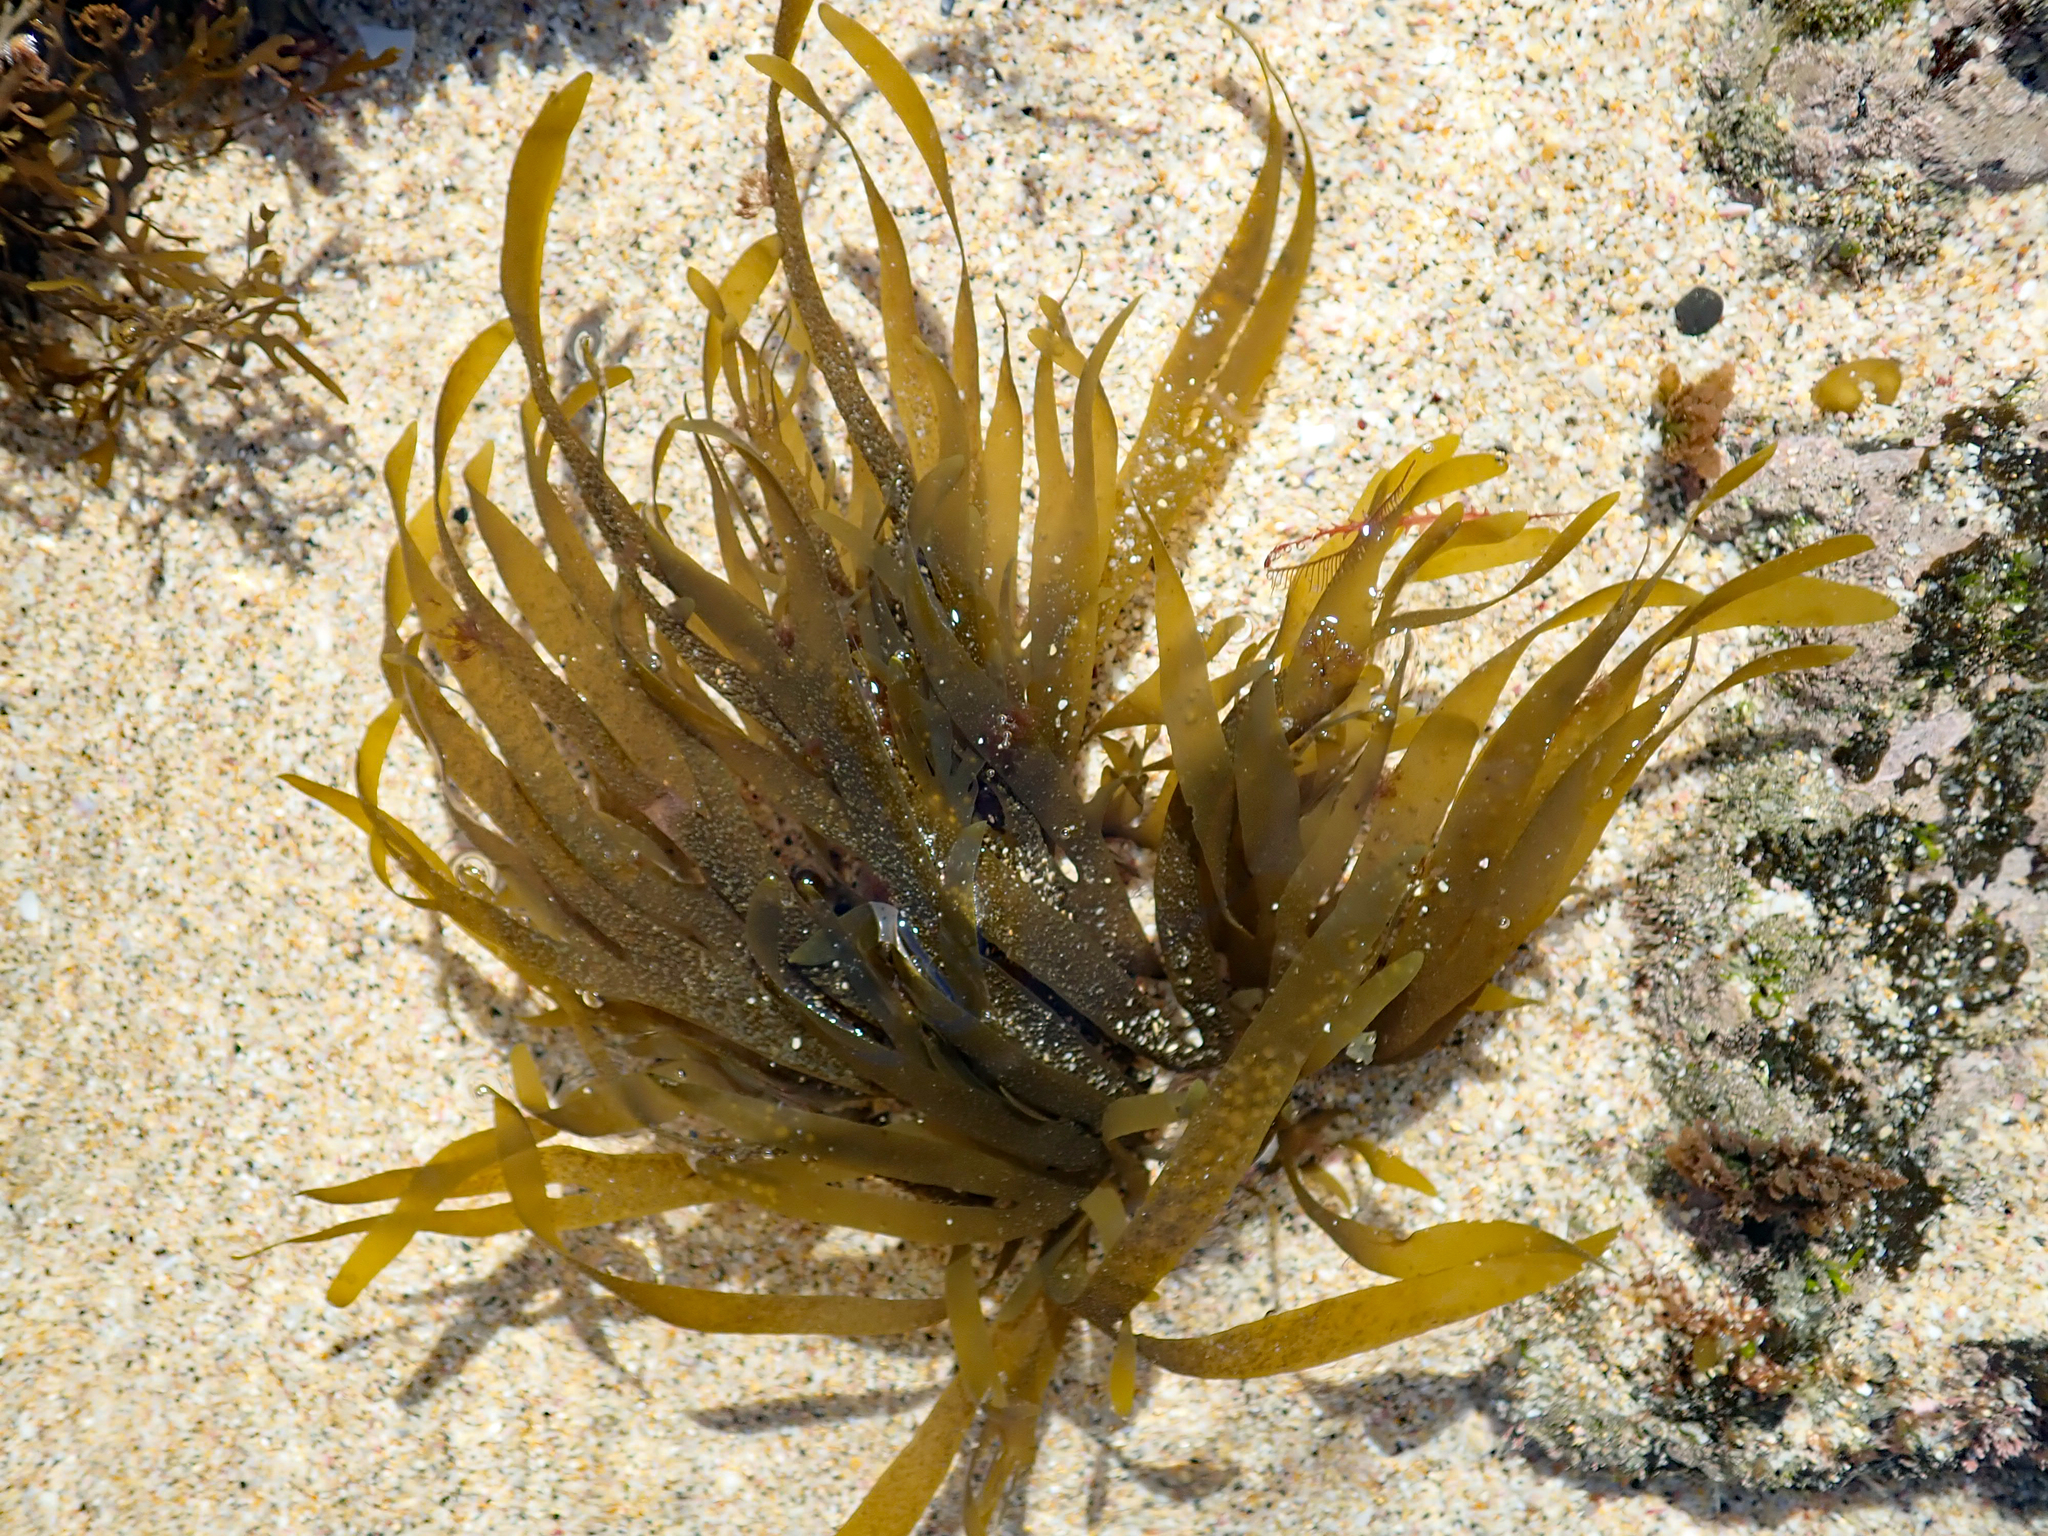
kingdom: Chromista
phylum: Ochrophyta
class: Phaeophyceae
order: Dictyotales
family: Dictyotaceae
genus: Dictyota
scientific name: Dictyota kunthii
